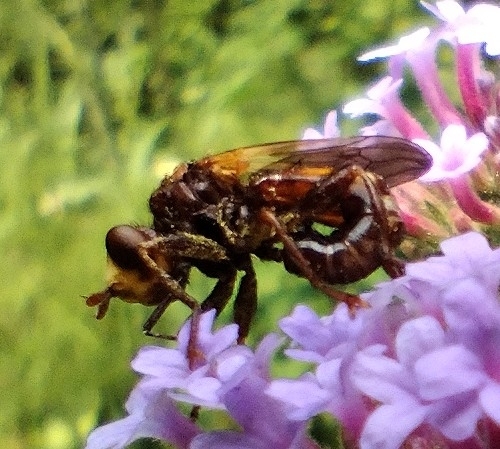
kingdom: Animalia
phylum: Arthropoda
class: Insecta
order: Diptera
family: Conopidae
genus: Sicus
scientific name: Sicus ferrugineus
